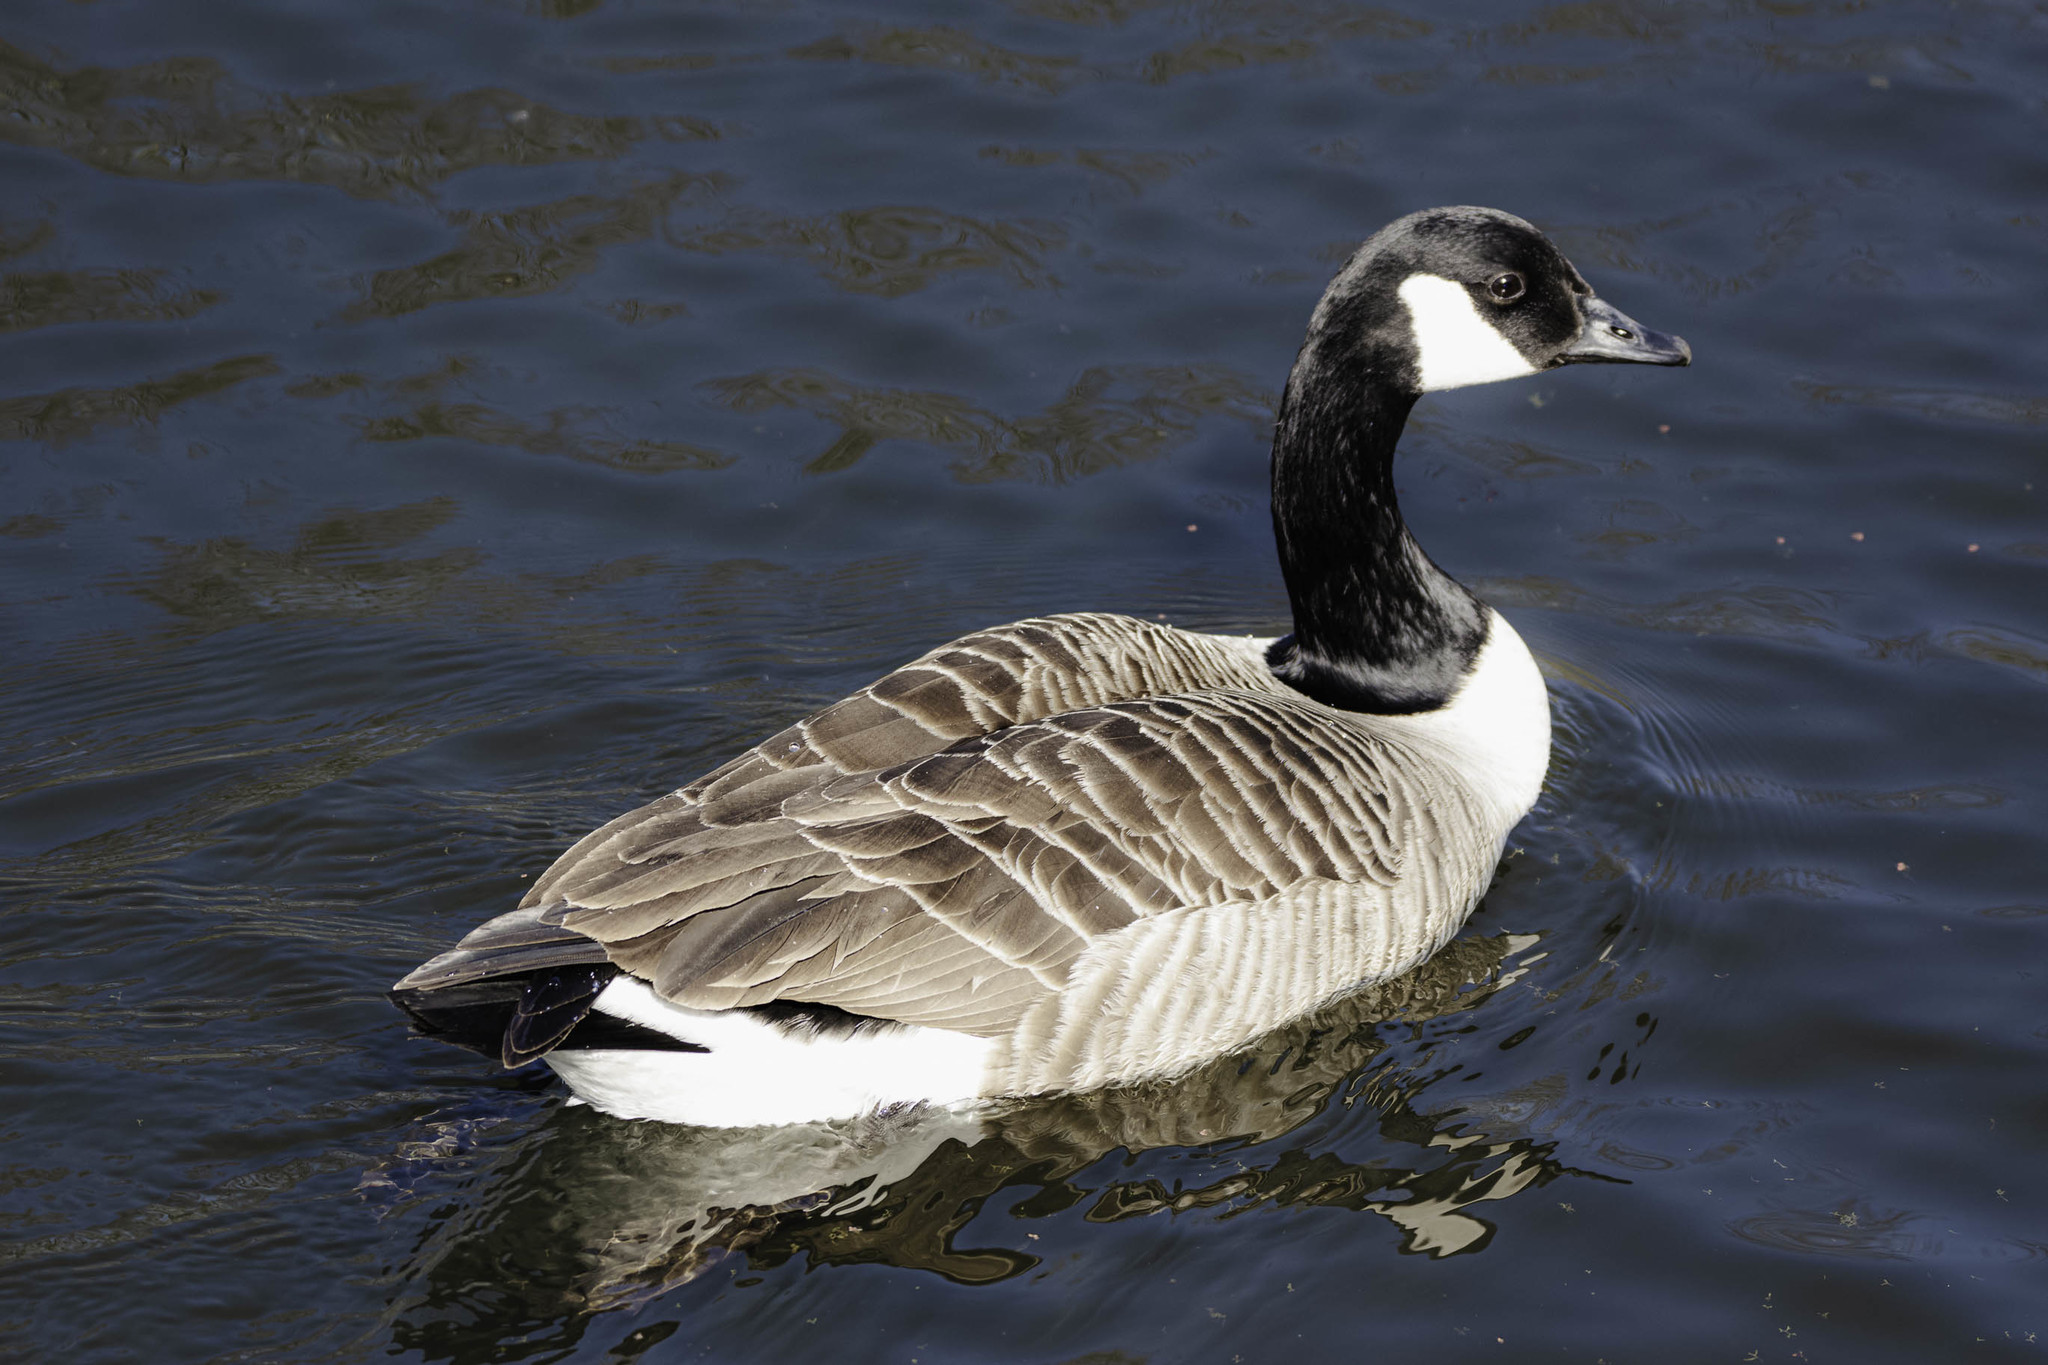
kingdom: Animalia
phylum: Chordata
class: Aves
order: Anseriformes
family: Anatidae
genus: Branta
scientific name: Branta canadensis
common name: Canada goose
